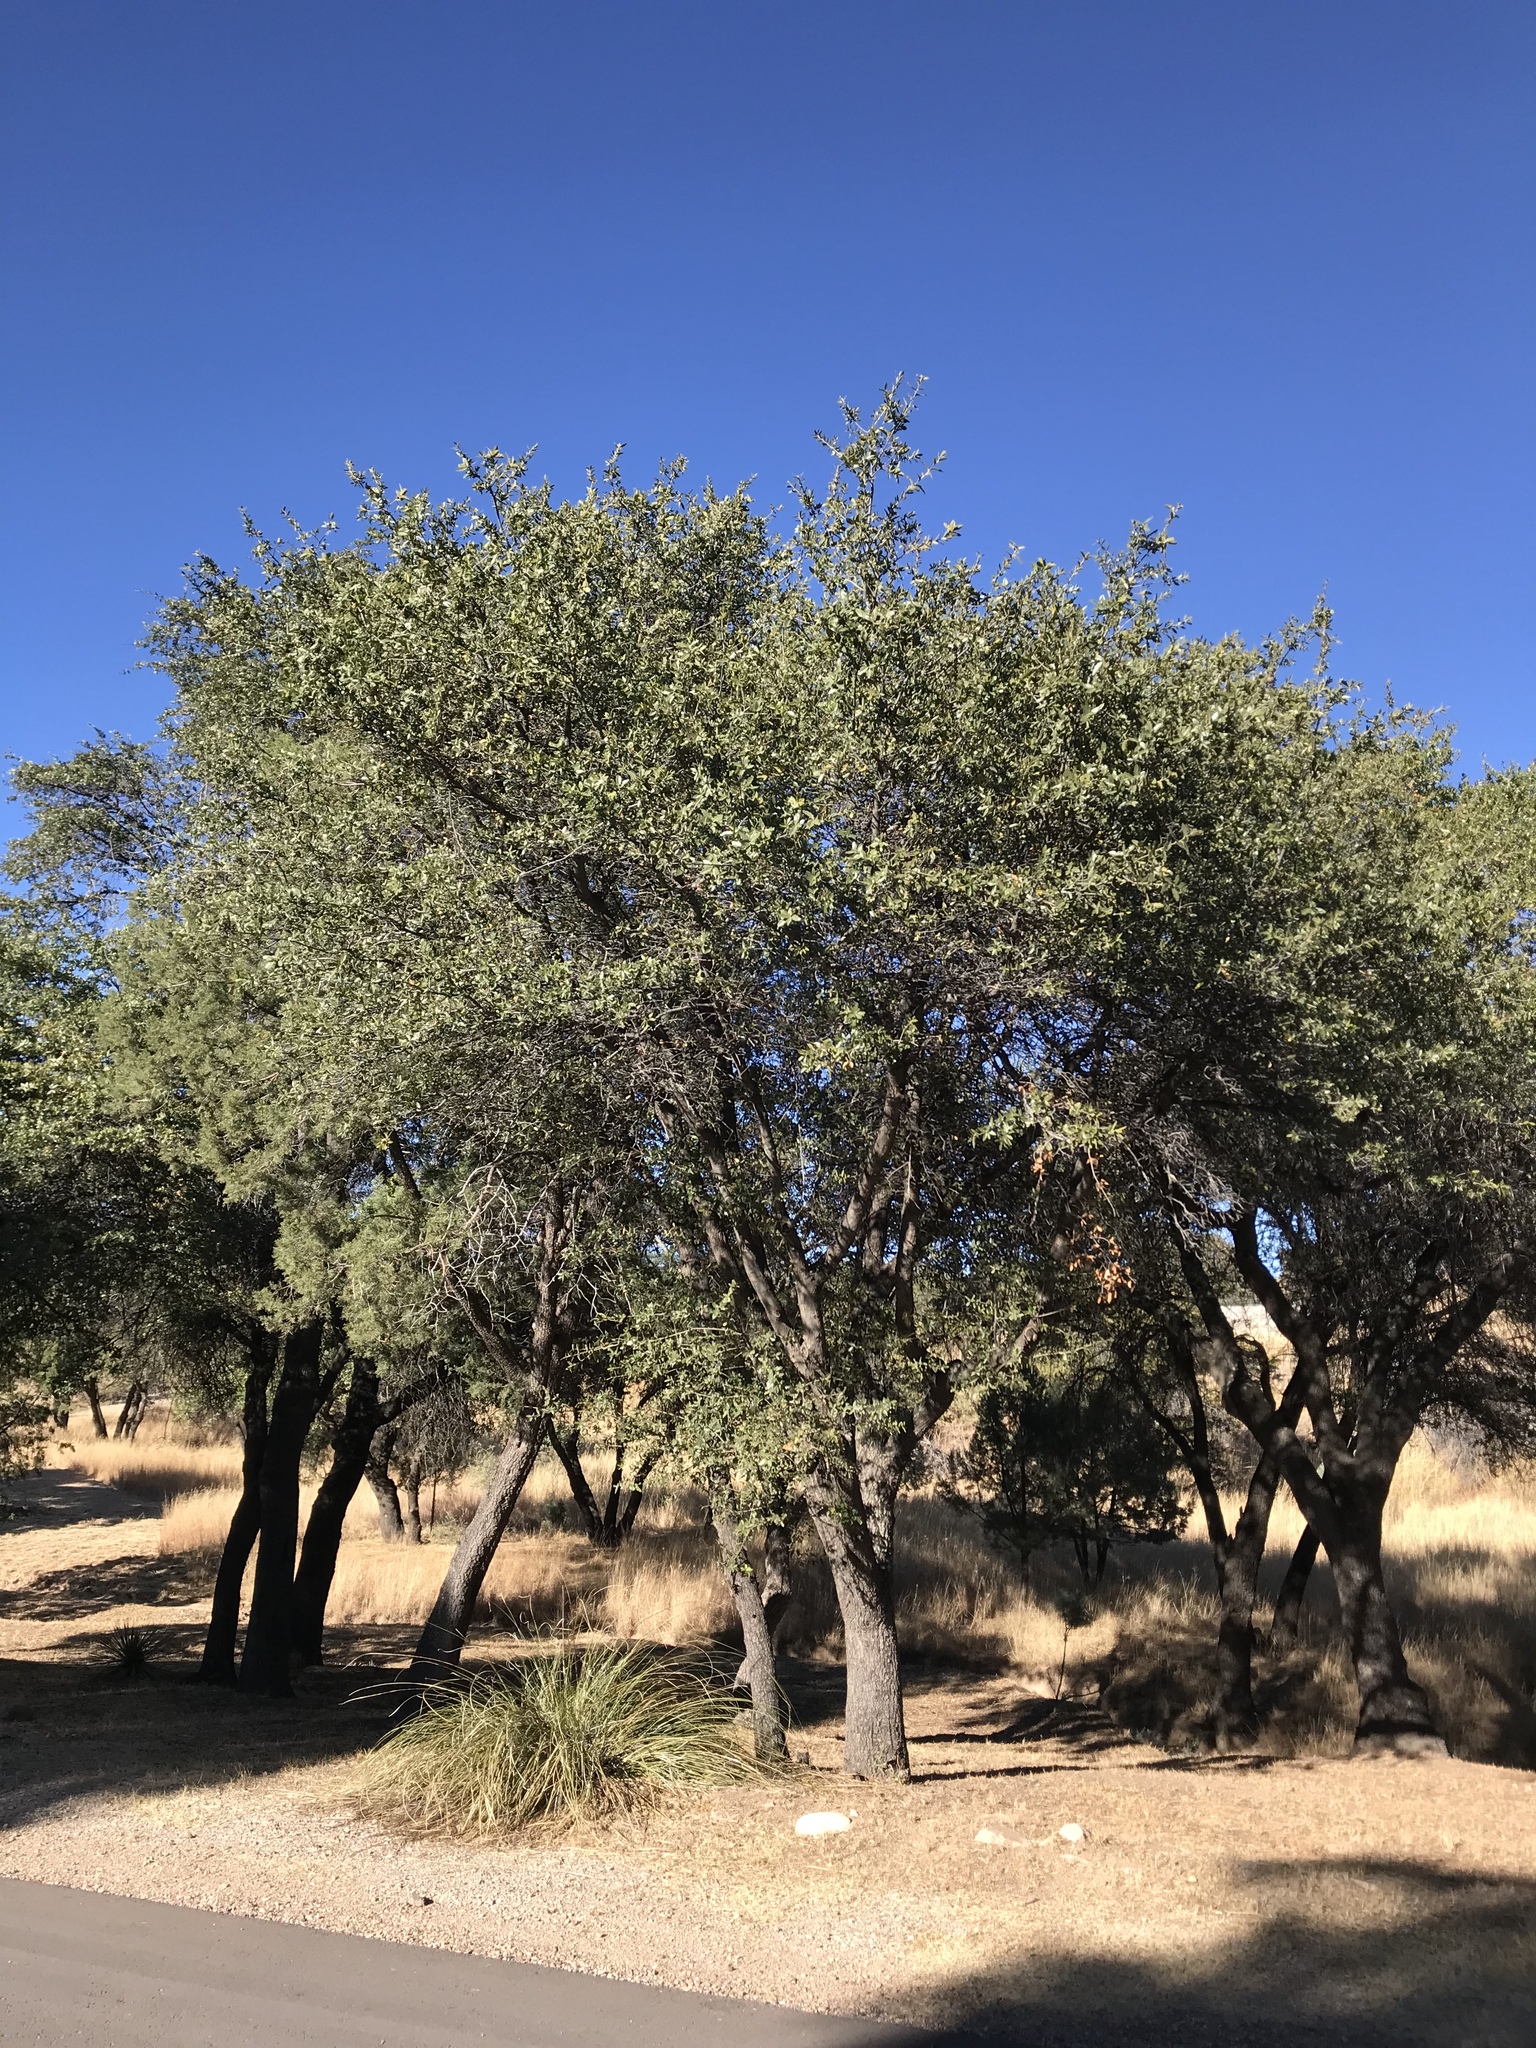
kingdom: Plantae
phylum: Tracheophyta
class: Magnoliopsida
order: Fagales
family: Fagaceae
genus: Quercus
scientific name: Quercus emoryi
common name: Emory oak
